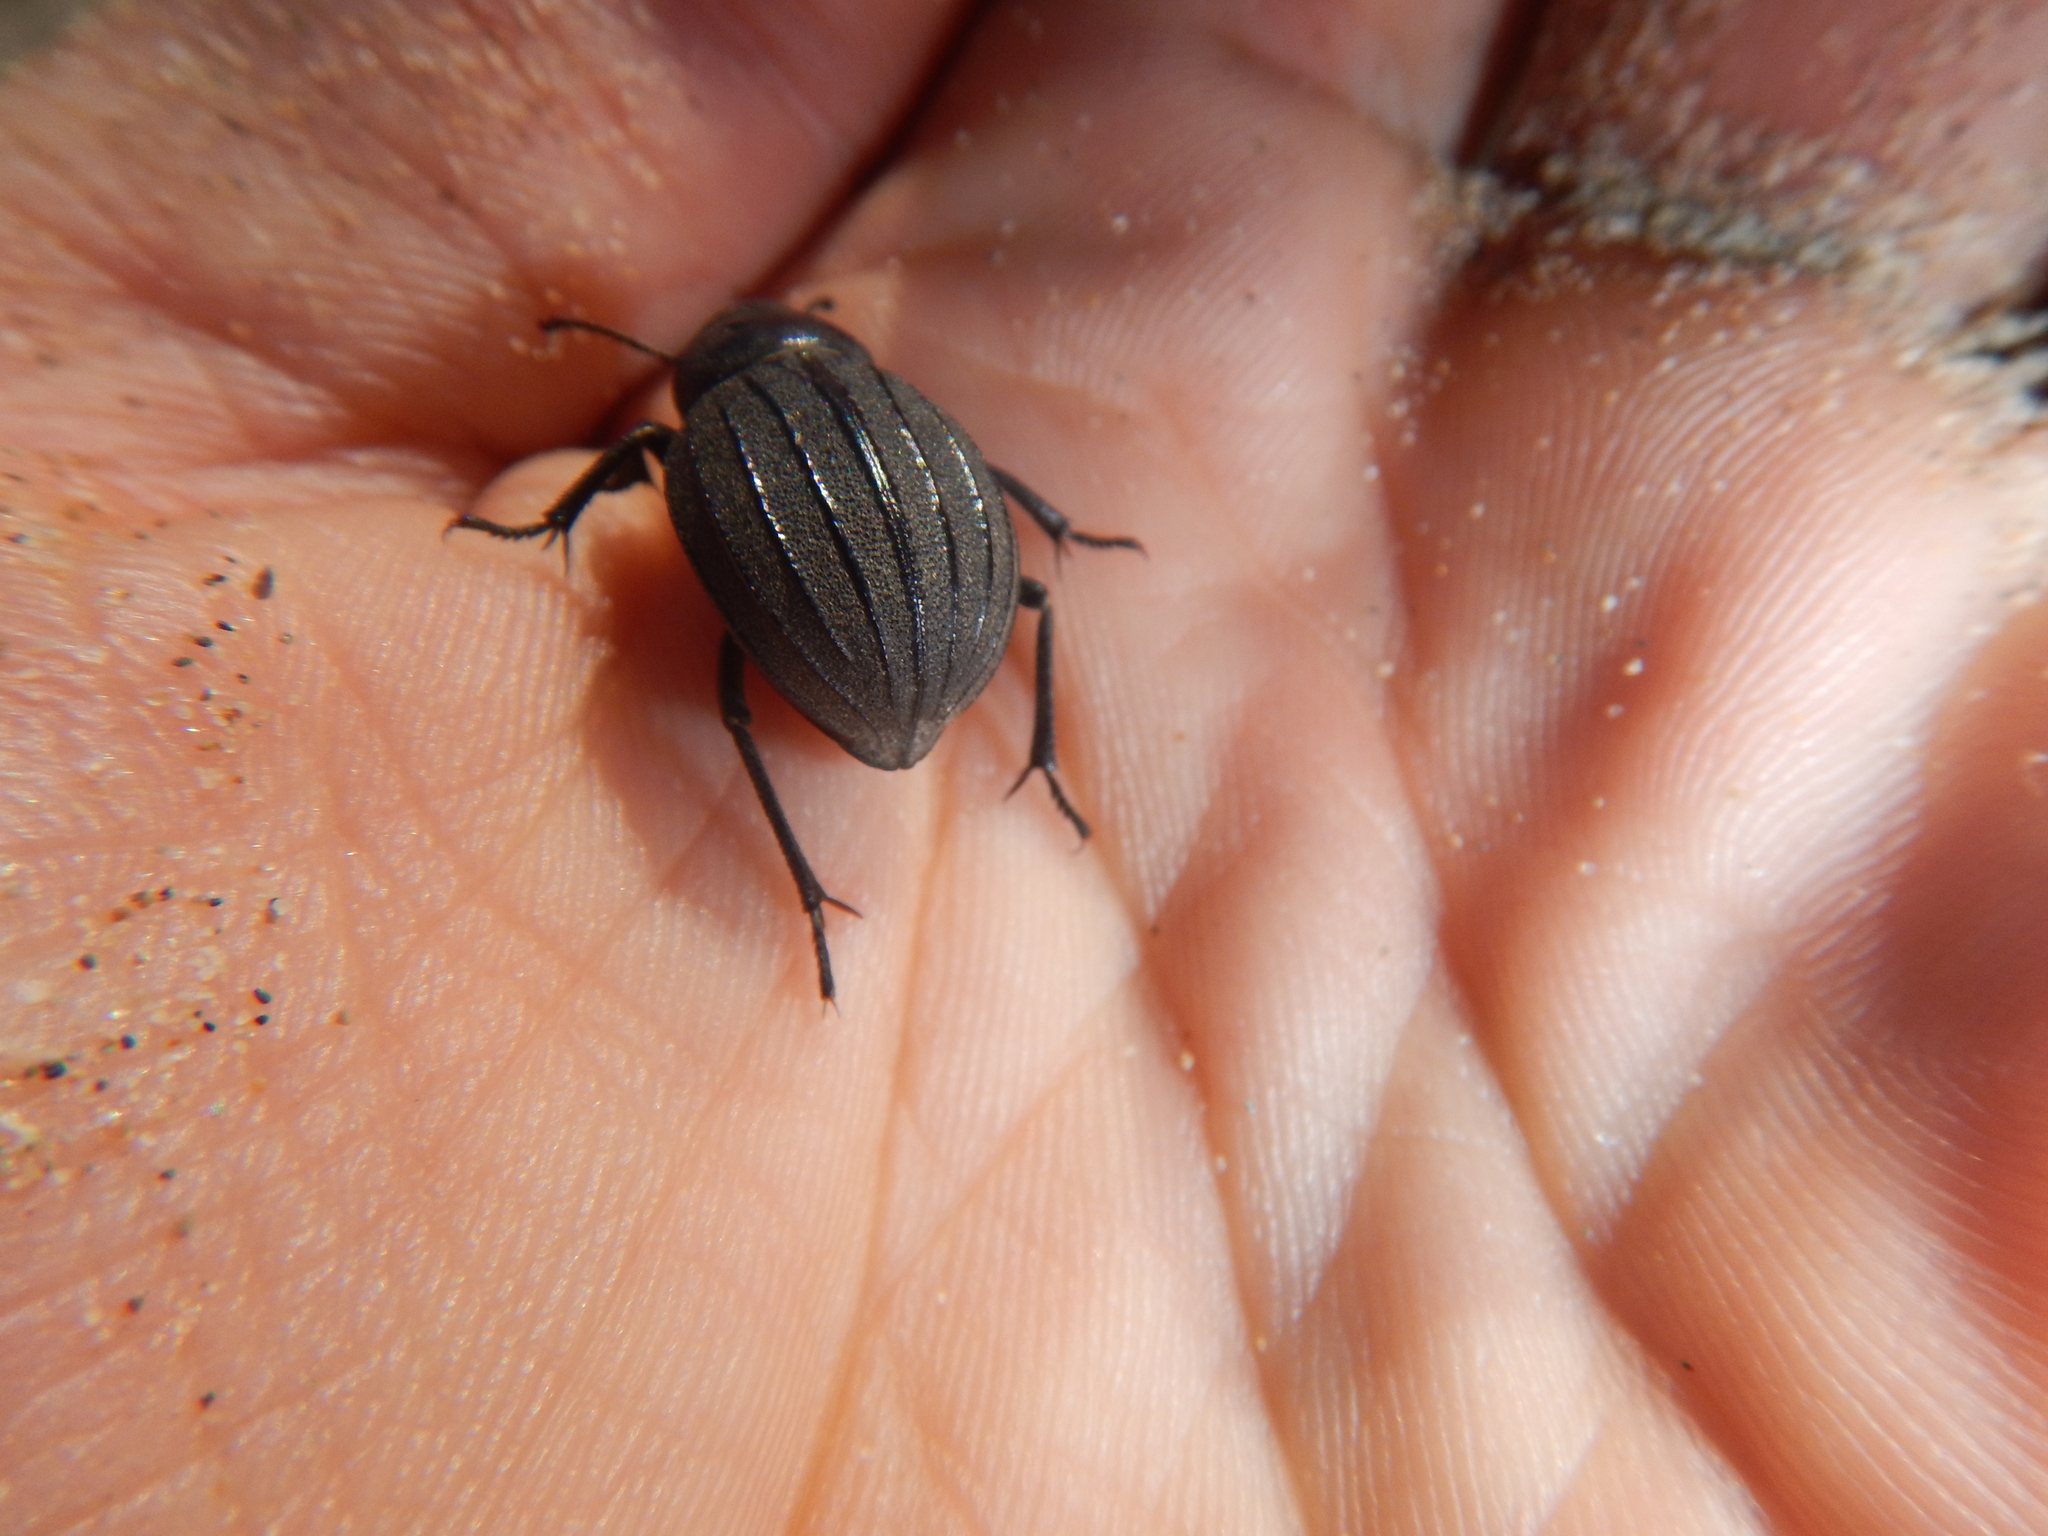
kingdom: Animalia
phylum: Arthropoda
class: Insecta
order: Coleoptera
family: Tenebrionidae
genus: Pimelia
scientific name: Pimelia muricata
